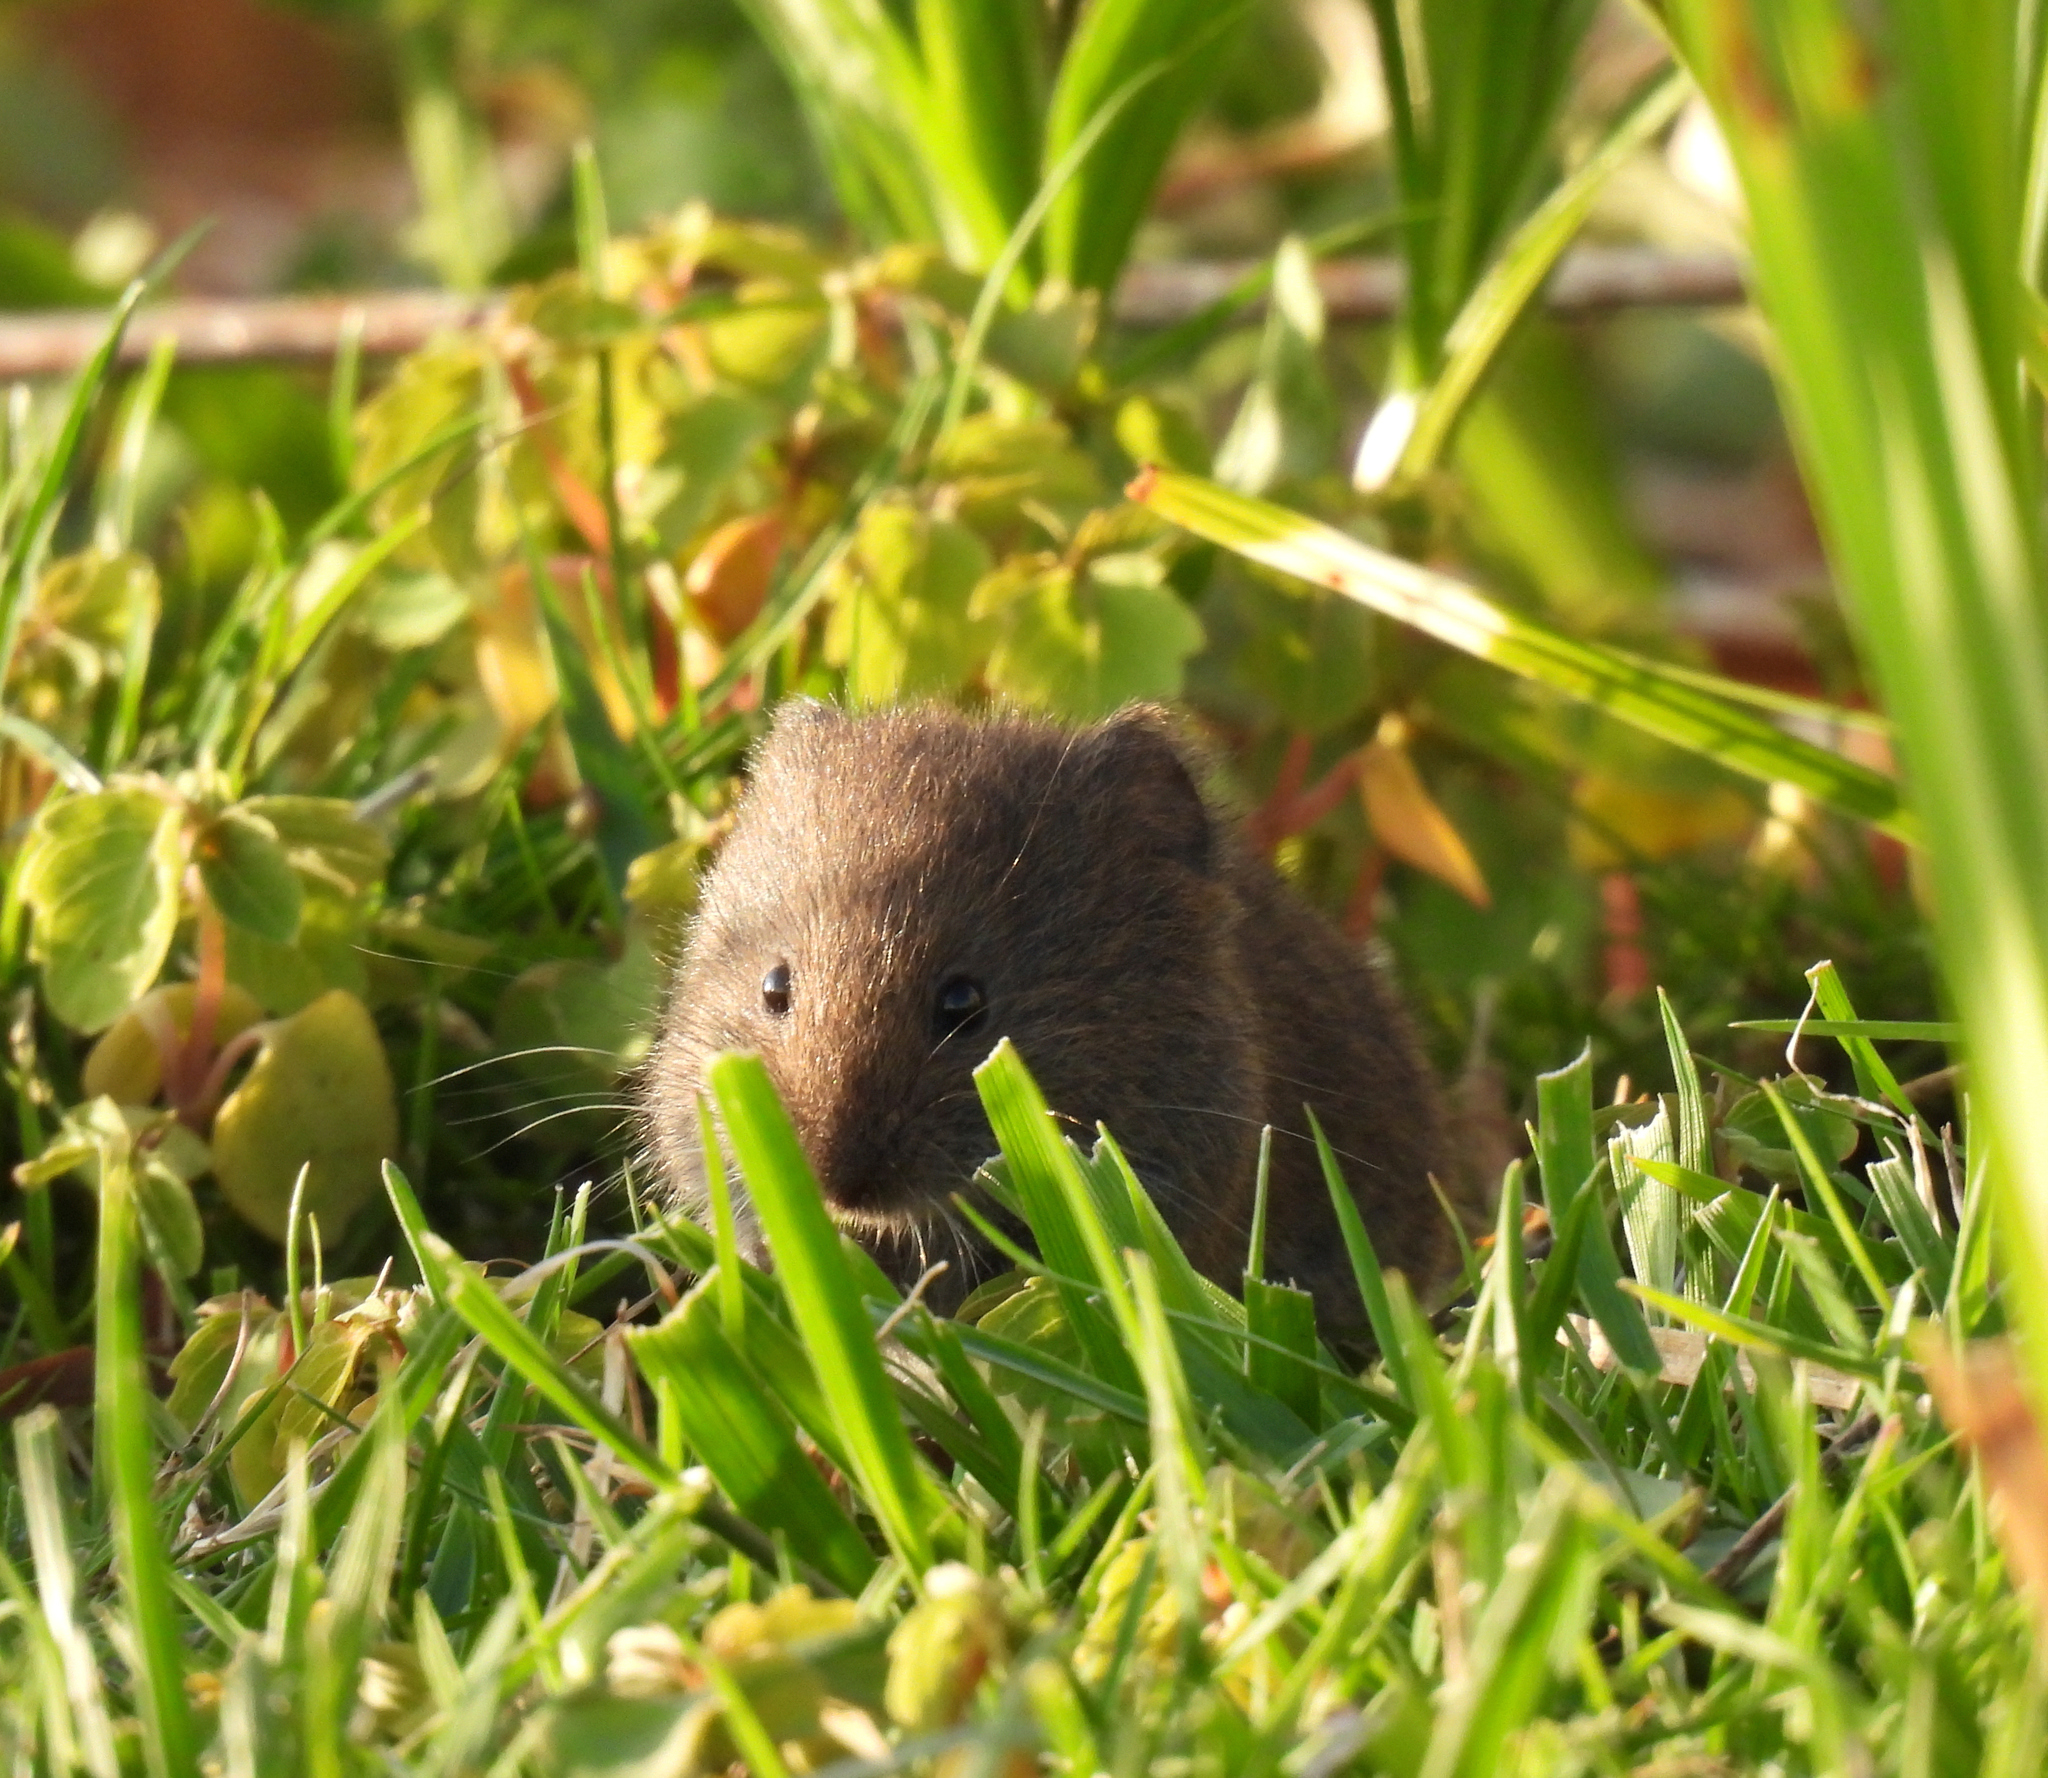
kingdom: Animalia
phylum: Chordata
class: Mammalia
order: Rodentia
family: Cricetidae
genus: Microtus
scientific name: Microtus pennsylvanicus
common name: Meadow vole
